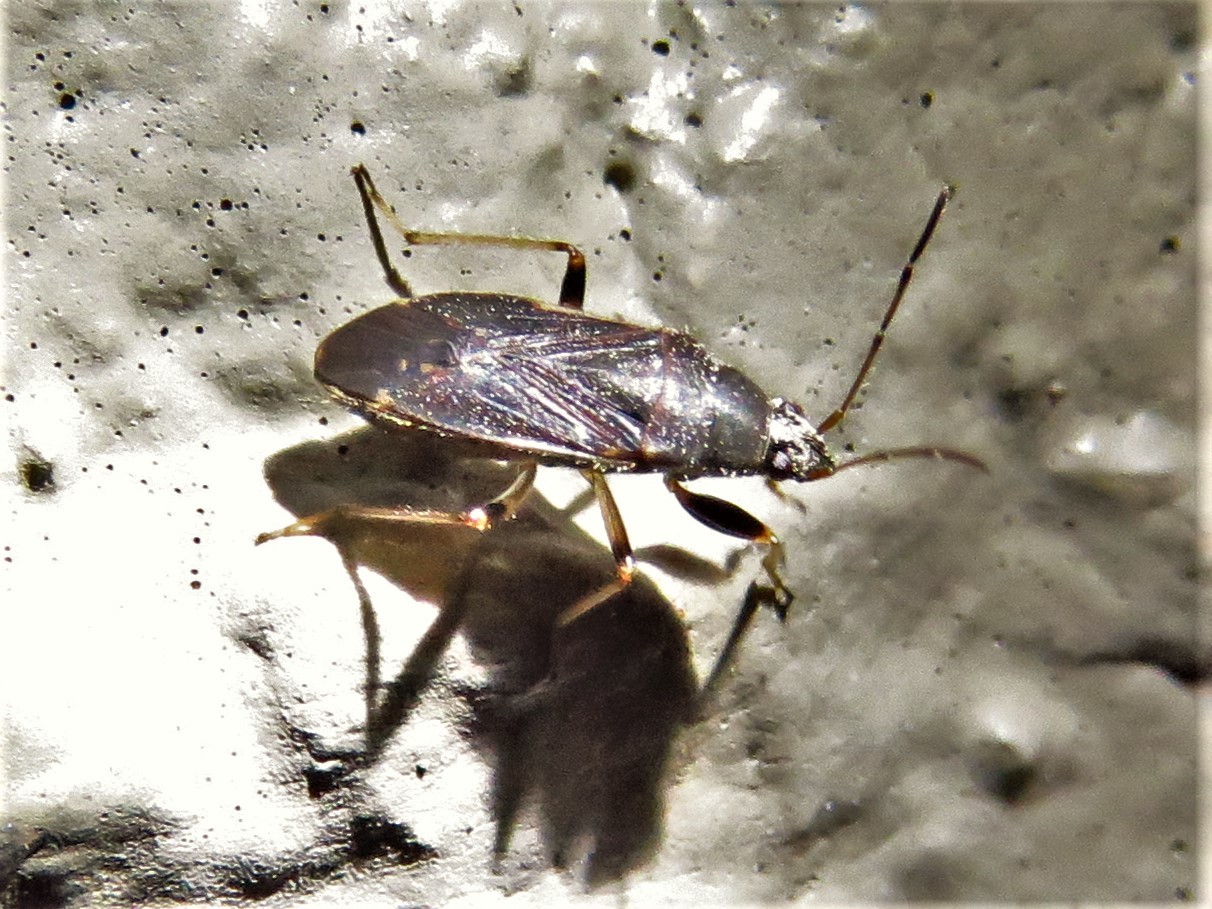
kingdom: Animalia
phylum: Arthropoda
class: Insecta
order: Hemiptera
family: Rhyparochromidae
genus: Perigenes
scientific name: Perigenes similis
